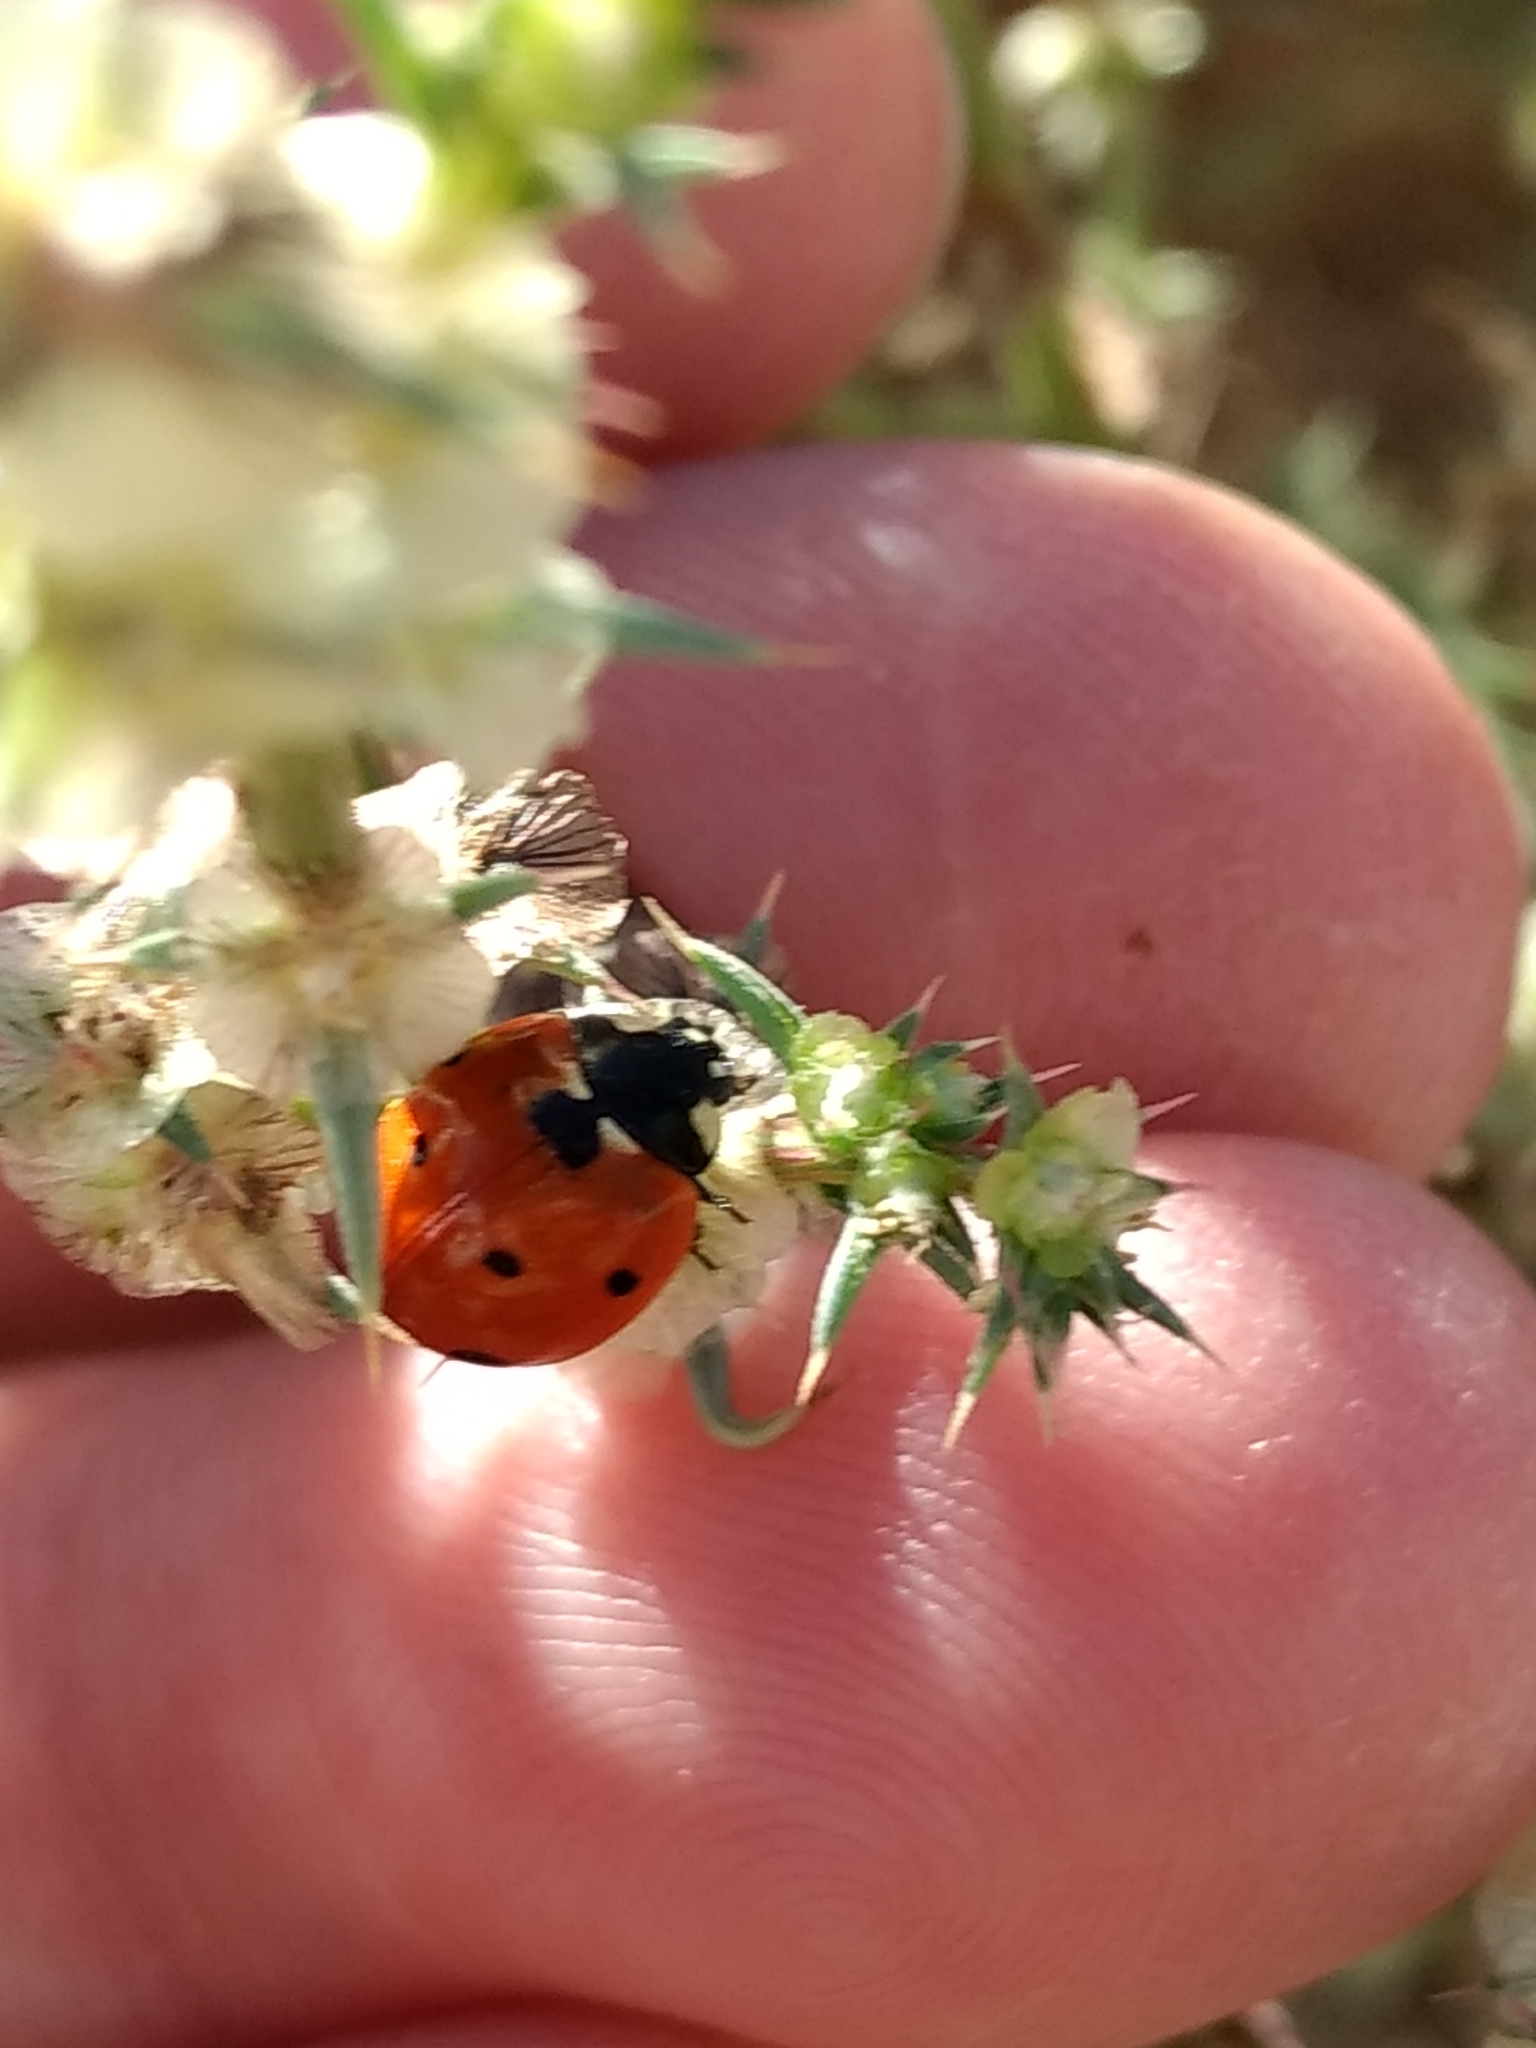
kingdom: Animalia
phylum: Arthropoda
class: Insecta
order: Coleoptera
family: Coccinellidae
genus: Coccinella
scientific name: Coccinella septempunctata
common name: Sevenspotted lady beetle
